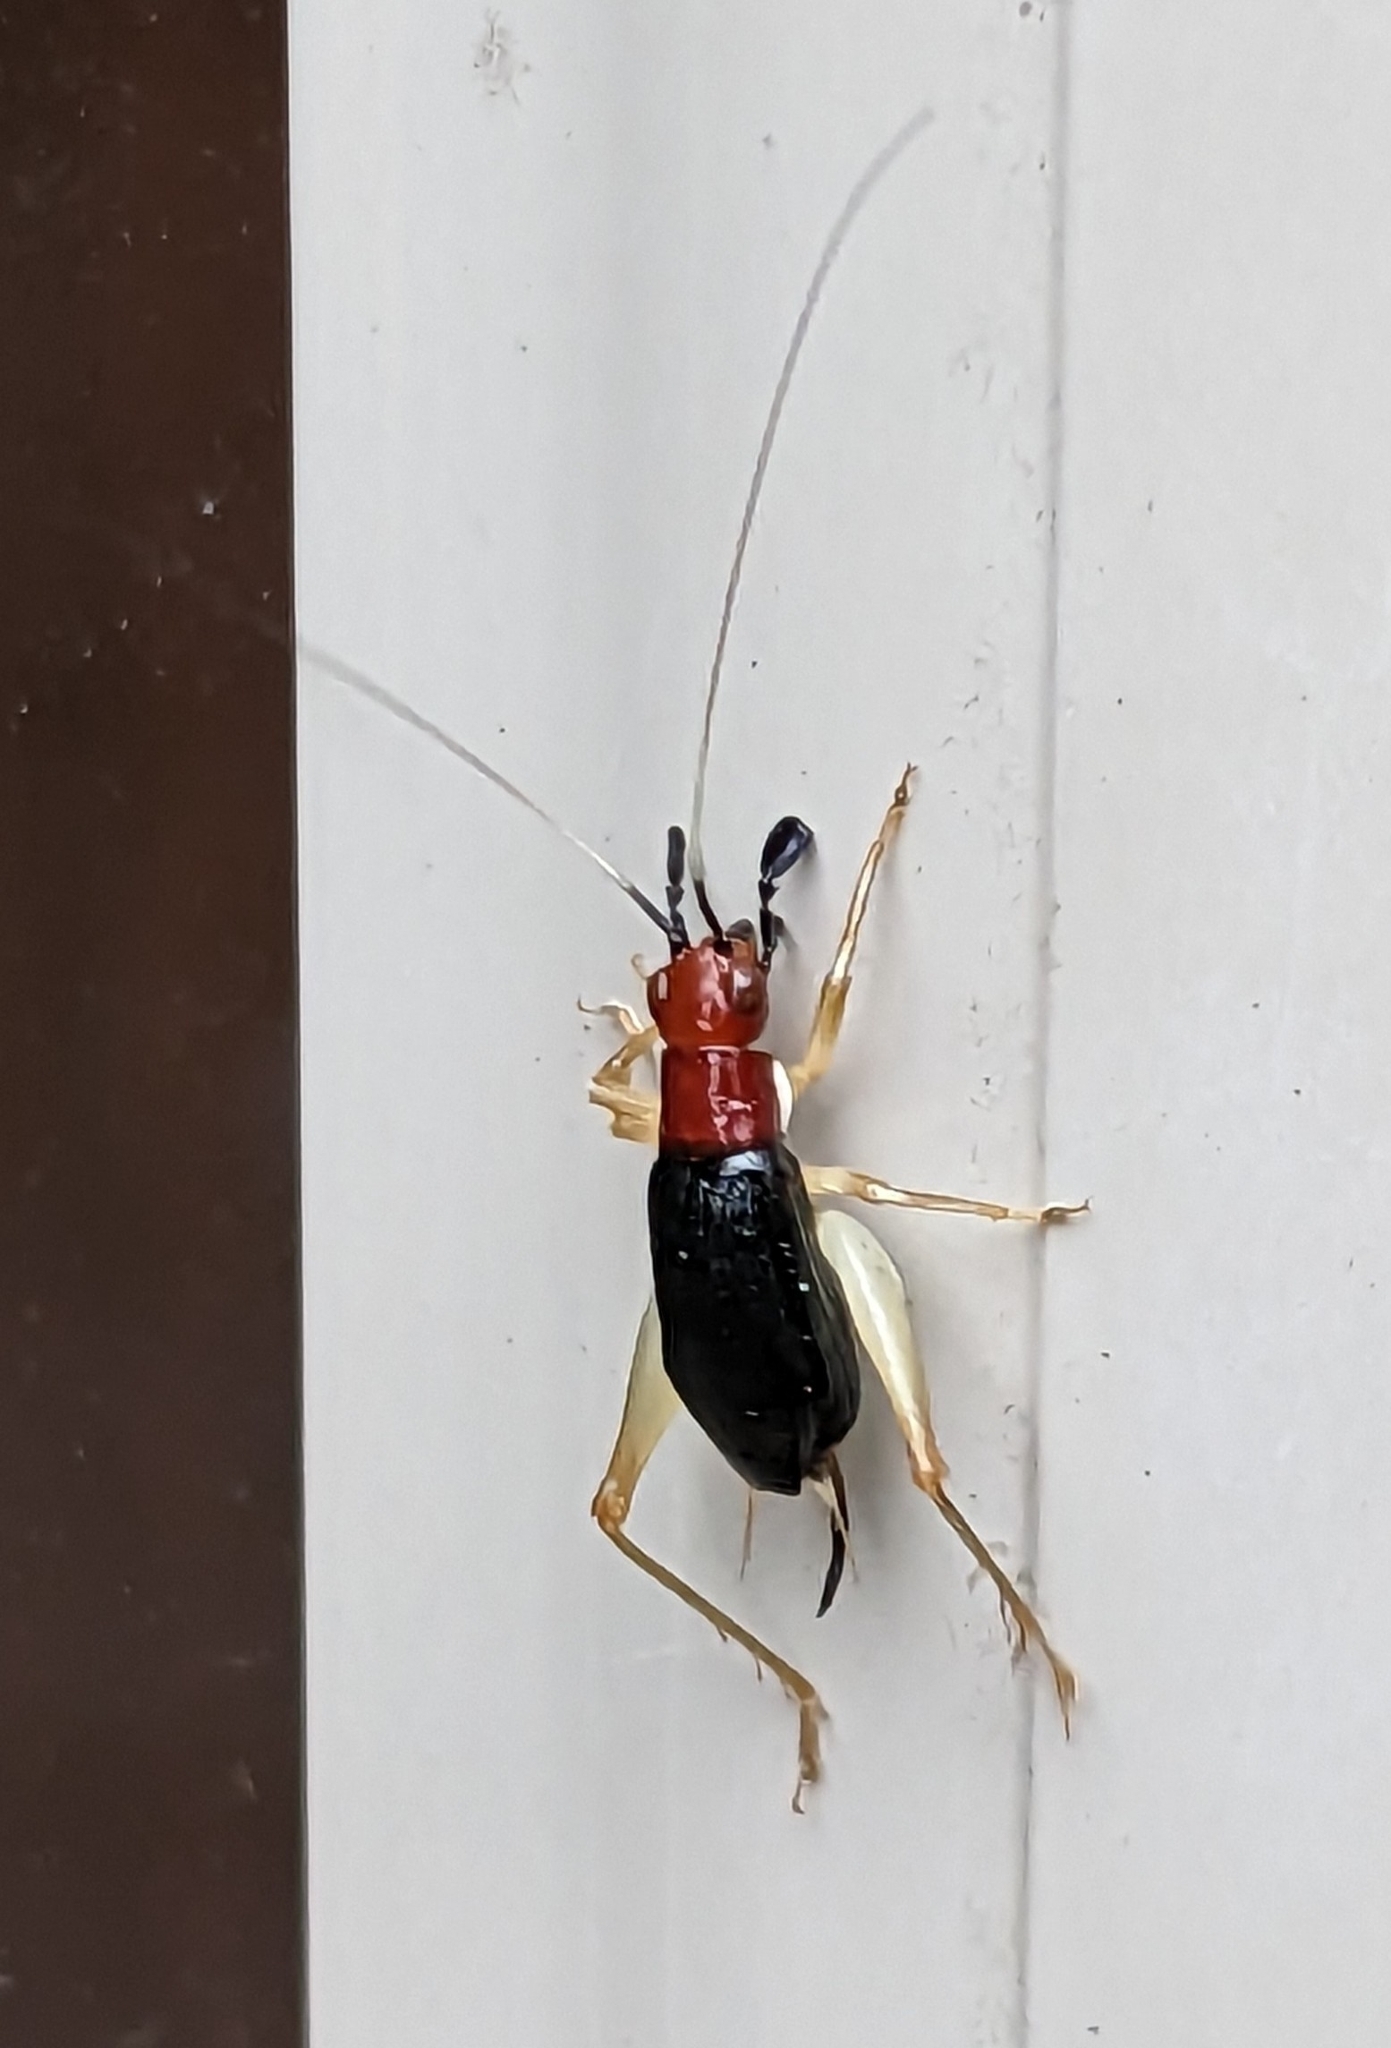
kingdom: Animalia
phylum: Arthropoda
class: Insecta
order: Orthoptera
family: Trigonidiidae
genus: Phyllopalpus
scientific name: Phyllopalpus pulchellus
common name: Handsome trig
